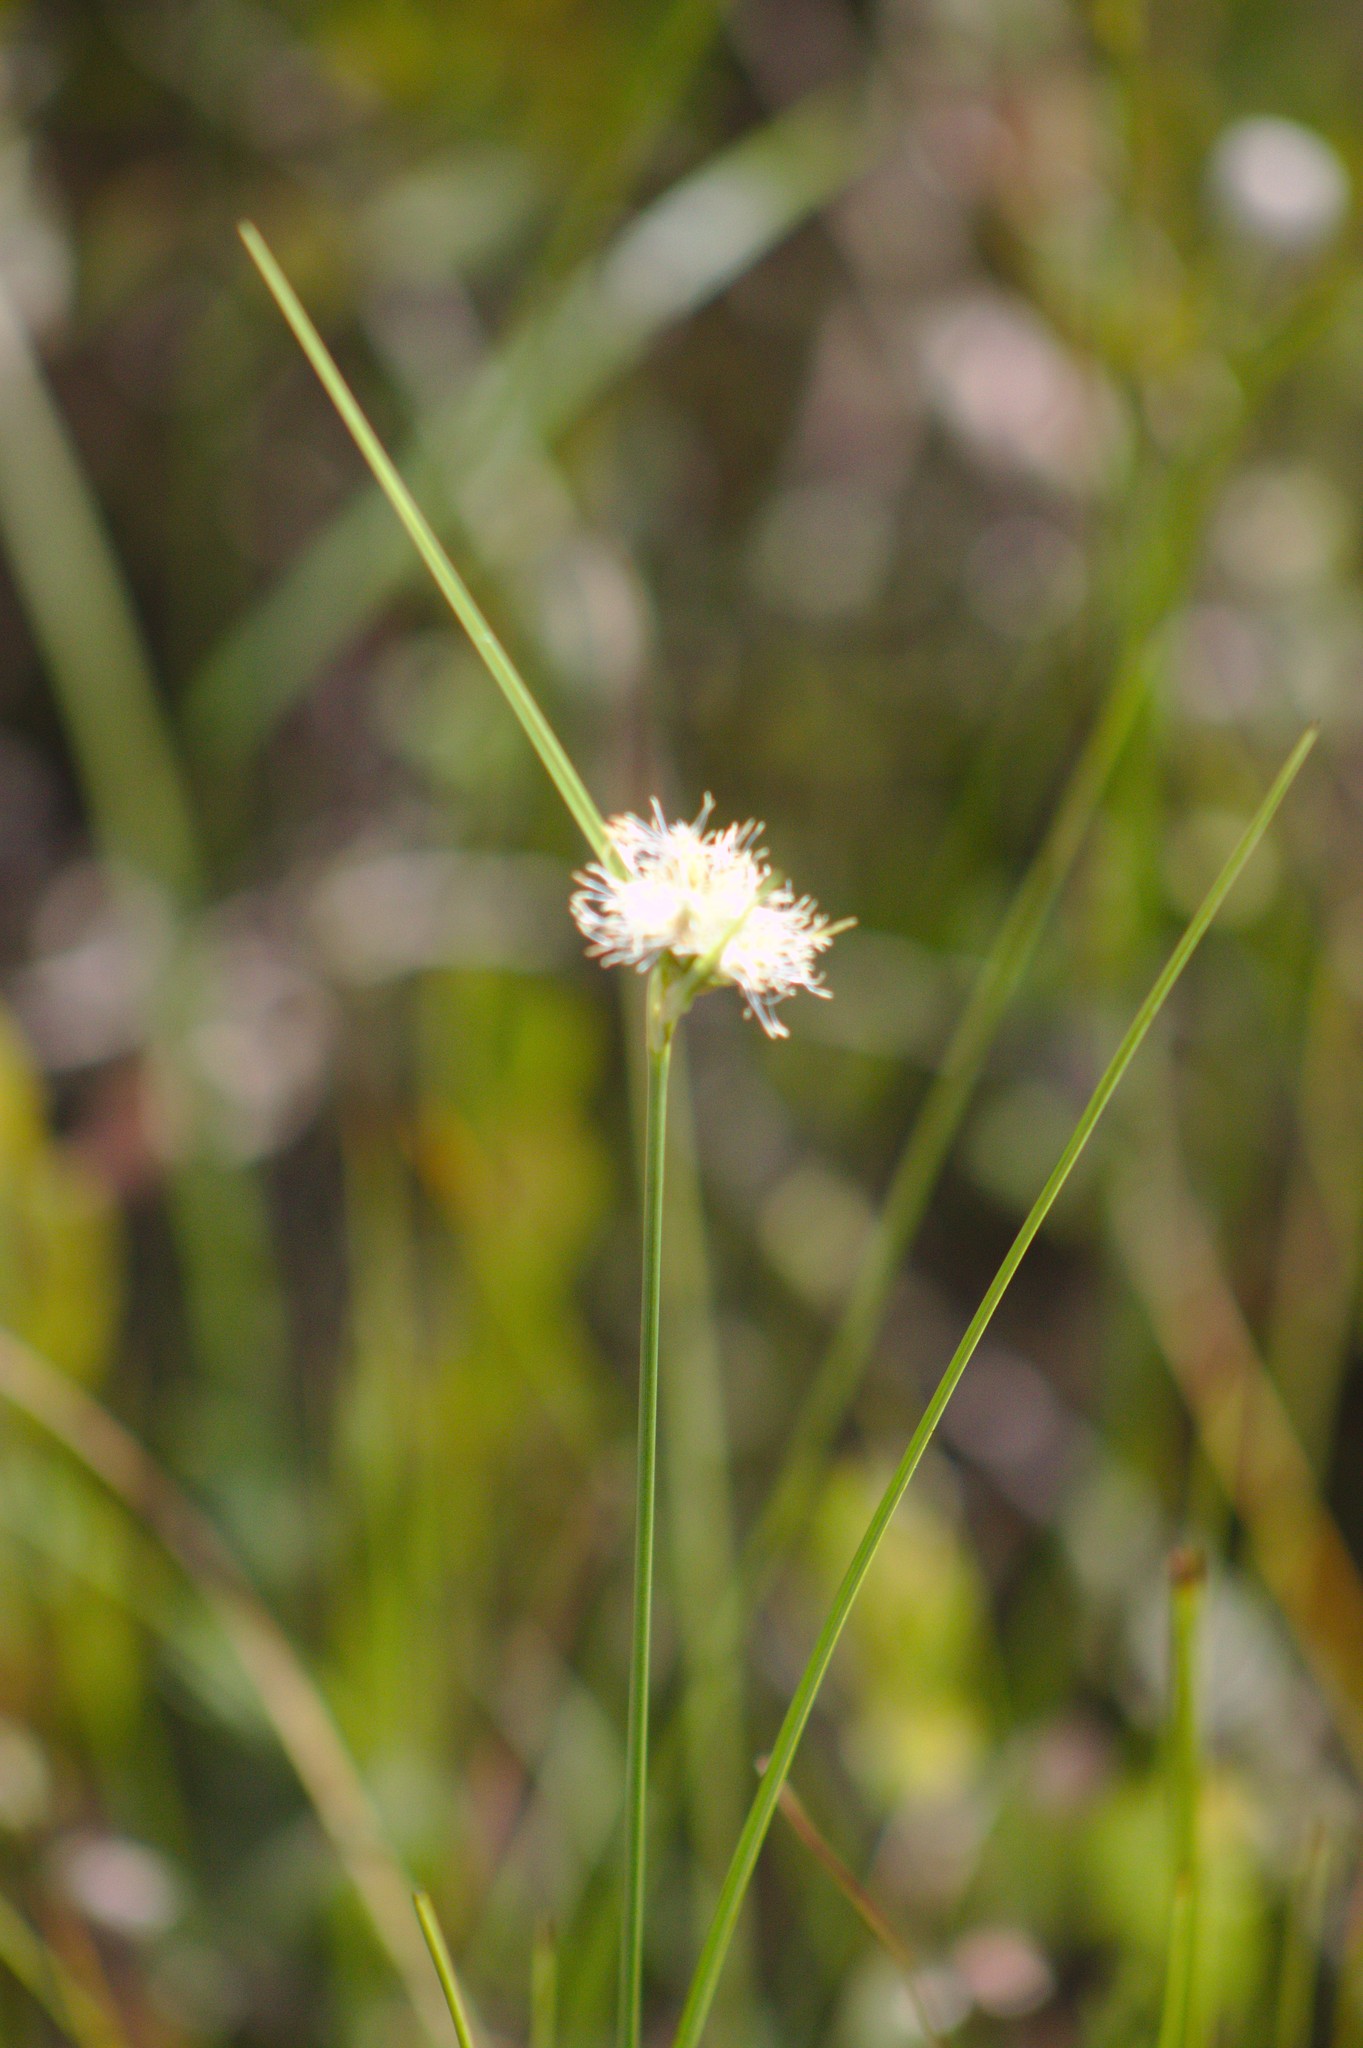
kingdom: Plantae
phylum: Tracheophyta
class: Liliopsida
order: Poales
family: Cyperaceae
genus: Eriophorum
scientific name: Eriophorum virginicum
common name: Tawny cottongrass
